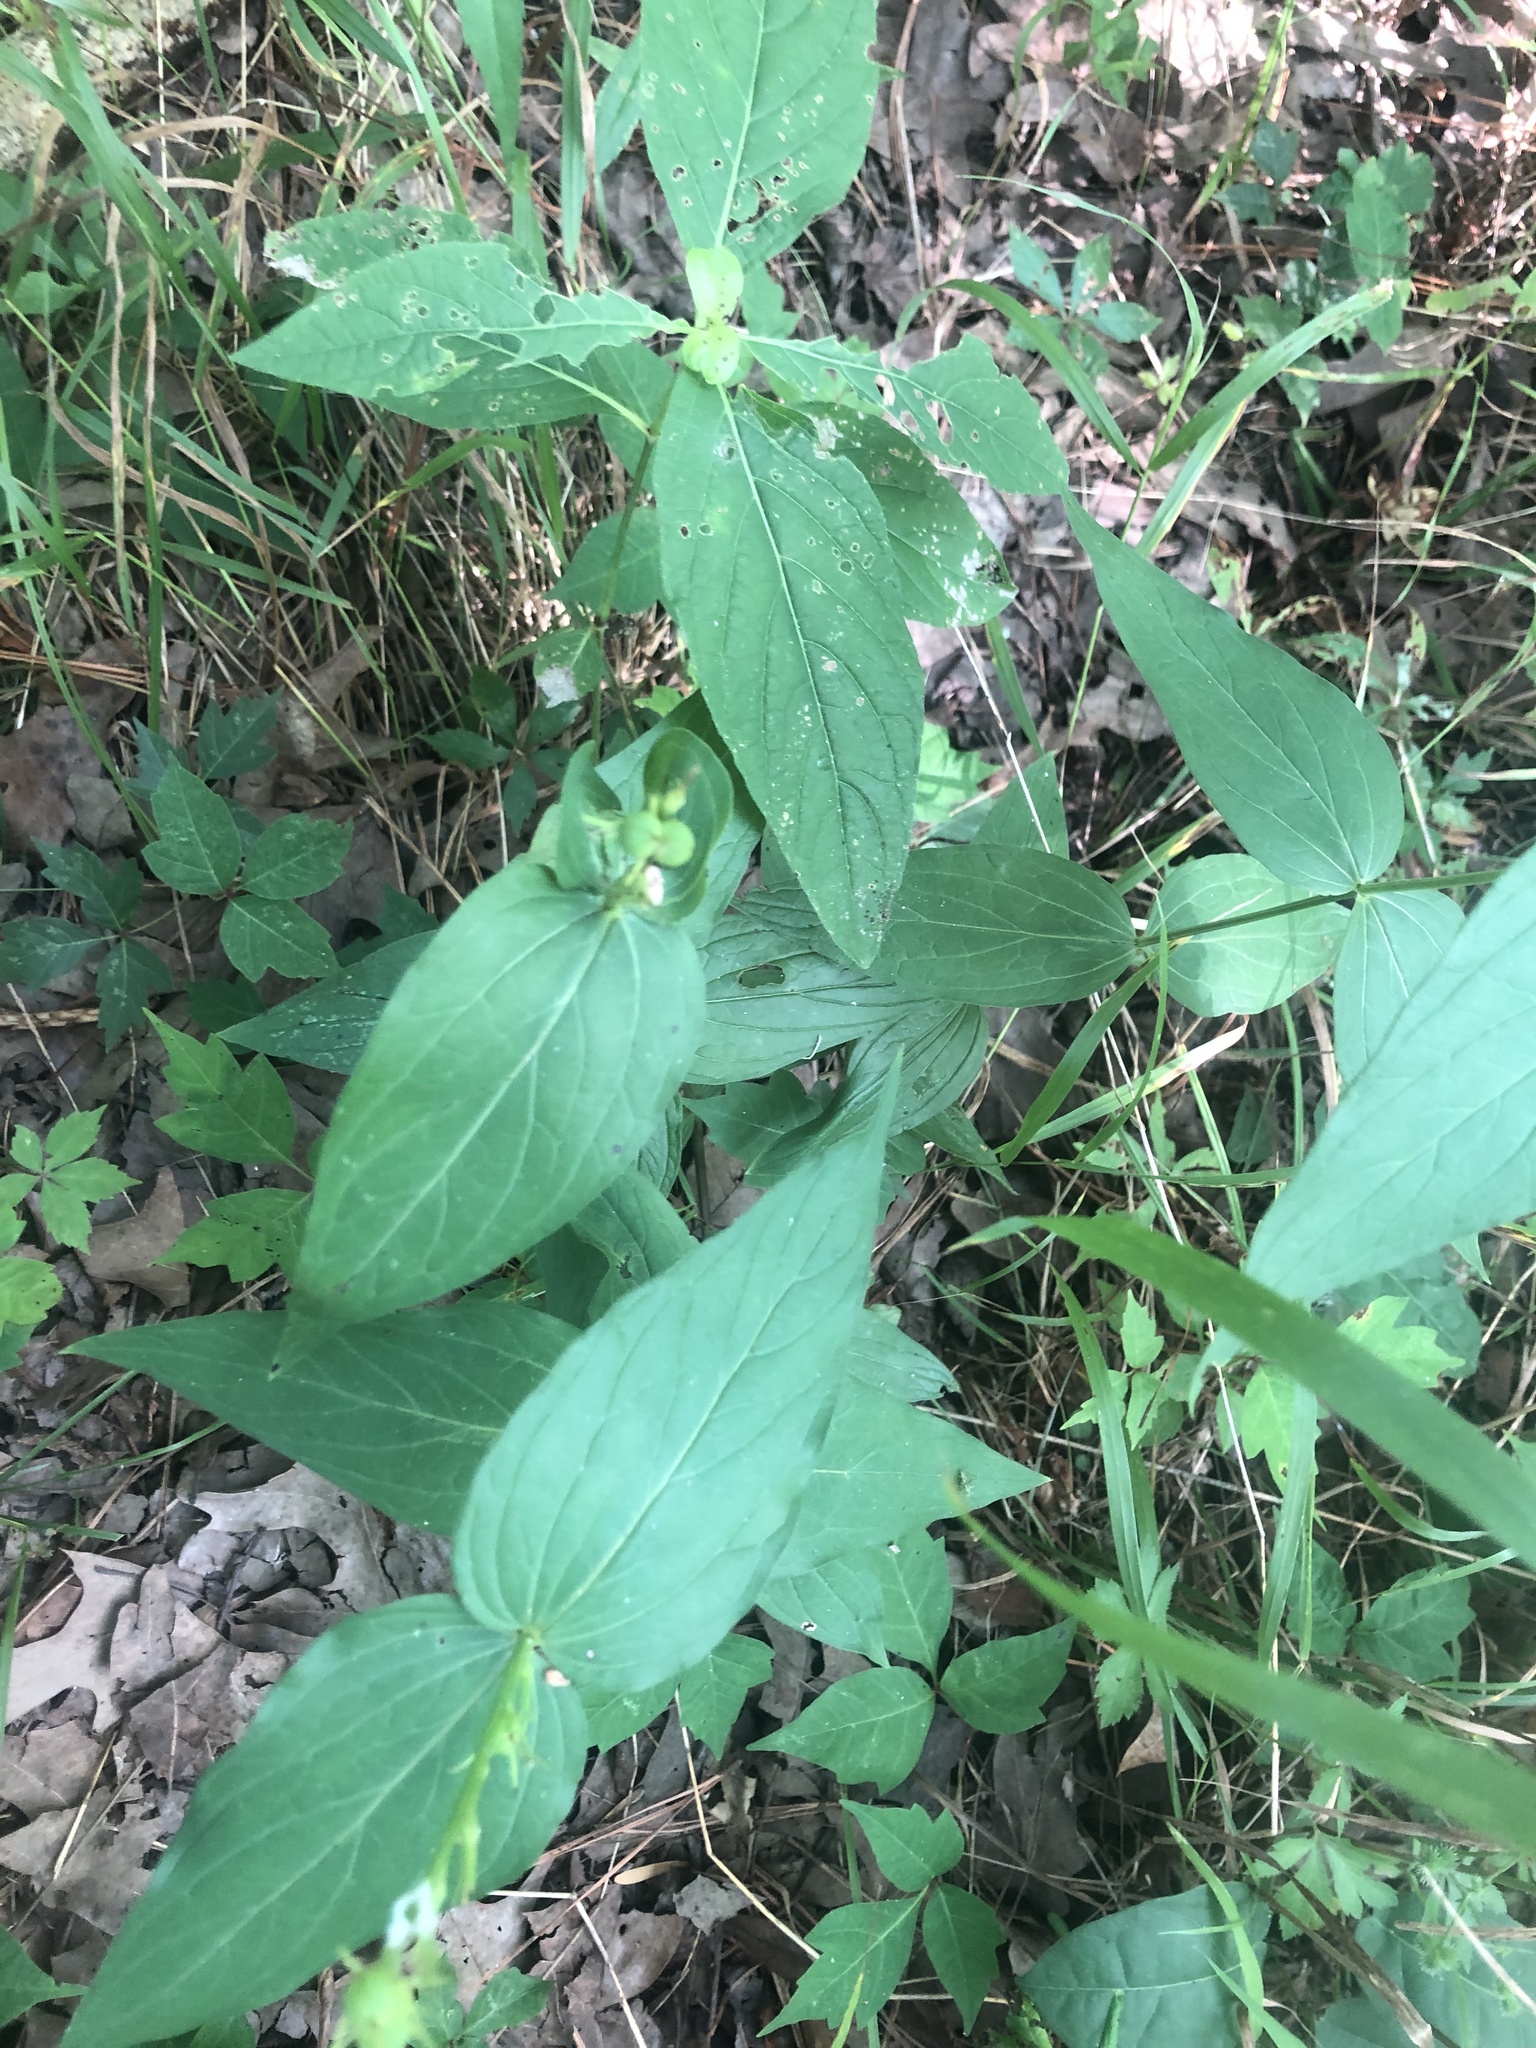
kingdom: Plantae
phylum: Tracheophyta
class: Magnoliopsida
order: Gentianales
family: Loganiaceae
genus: Spigelia
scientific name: Spigelia marilandica
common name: Indian-pink
